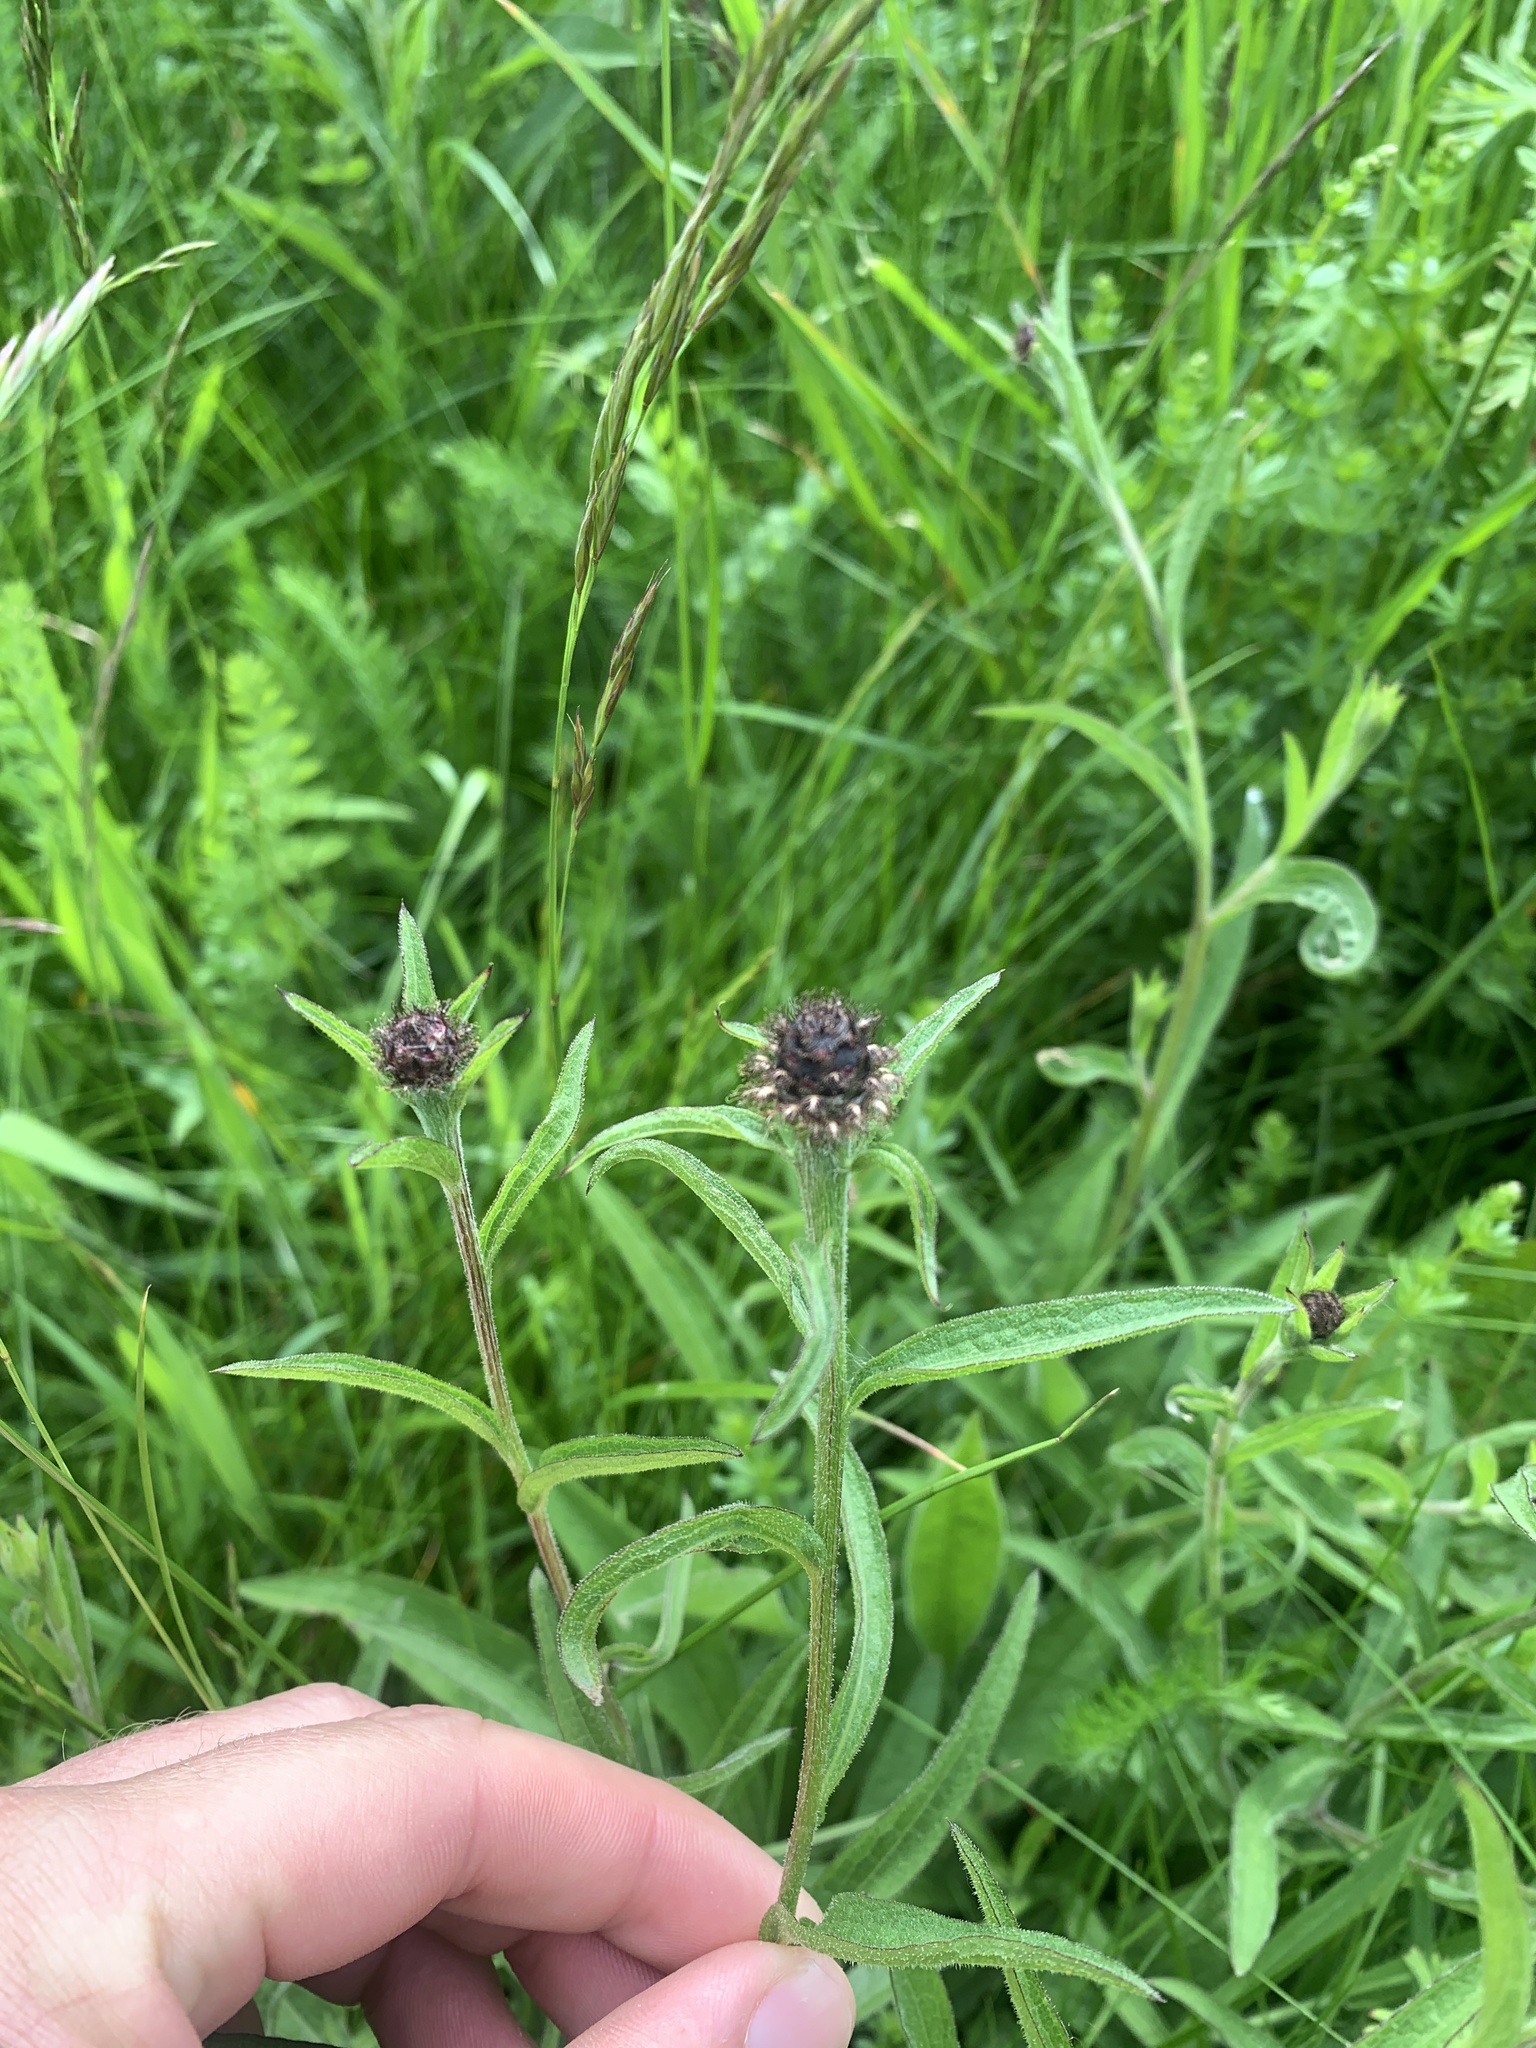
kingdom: Plantae
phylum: Tracheophyta
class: Magnoliopsida
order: Asterales
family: Asteraceae
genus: Centaurea
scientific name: Centaurea nigra
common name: Lesser knapweed
